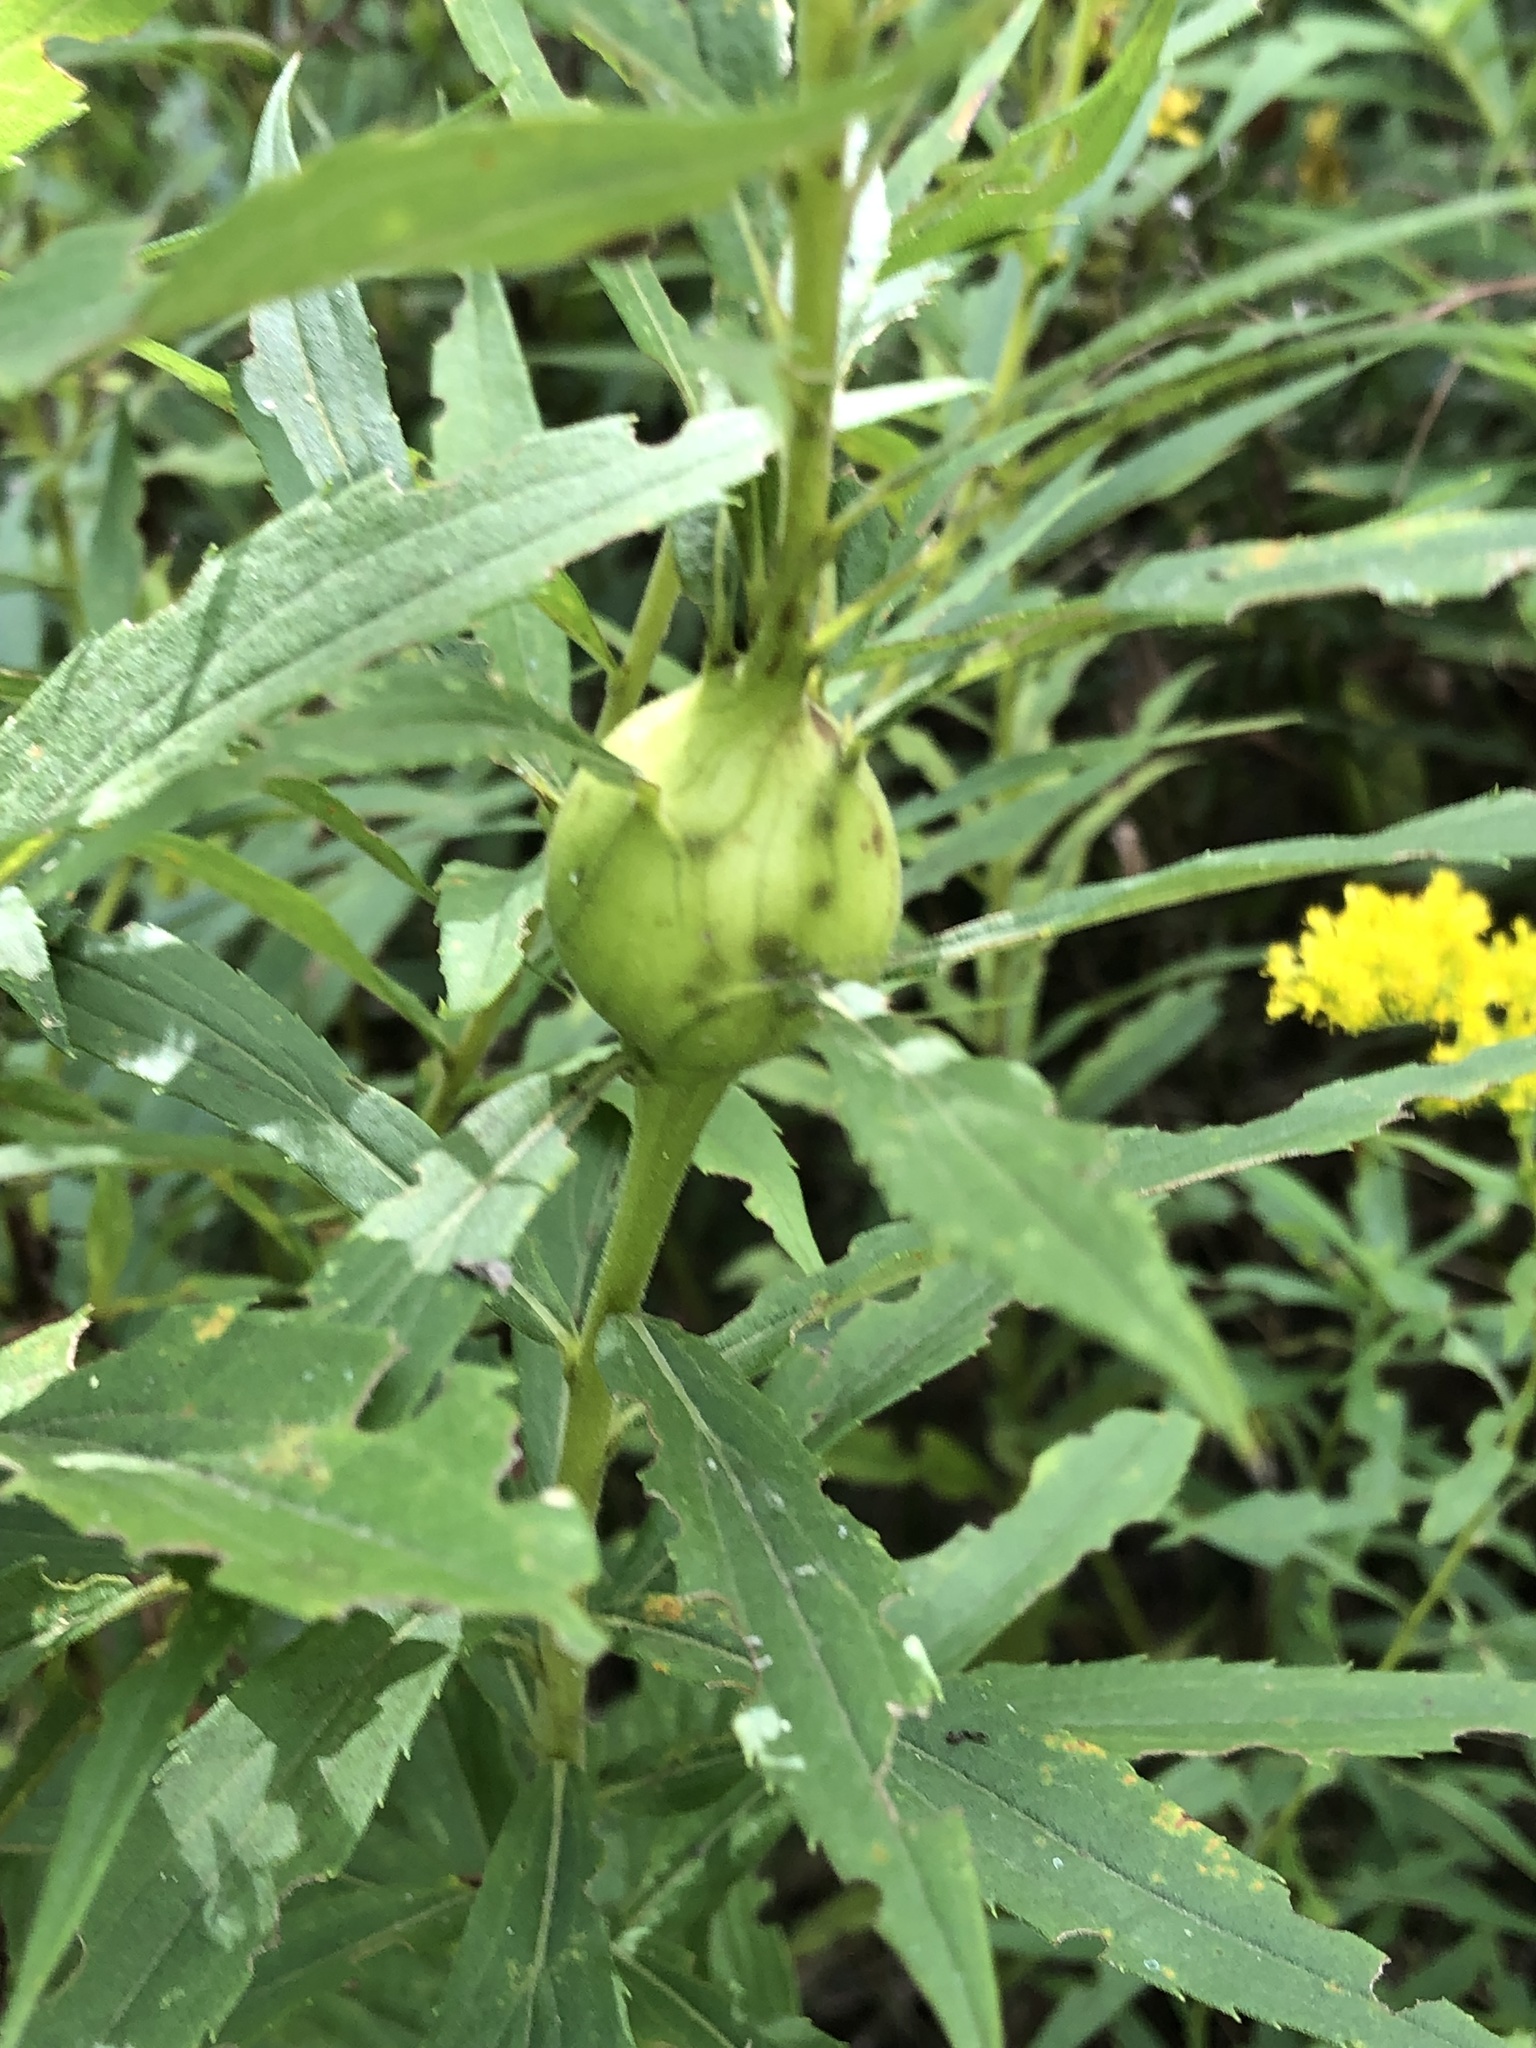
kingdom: Animalia
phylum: Arthropoda
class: Insecta
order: Diptera
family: Tephritidae
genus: Eurosta
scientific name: Eurosta solidaginis
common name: Goldenrod gall fly
